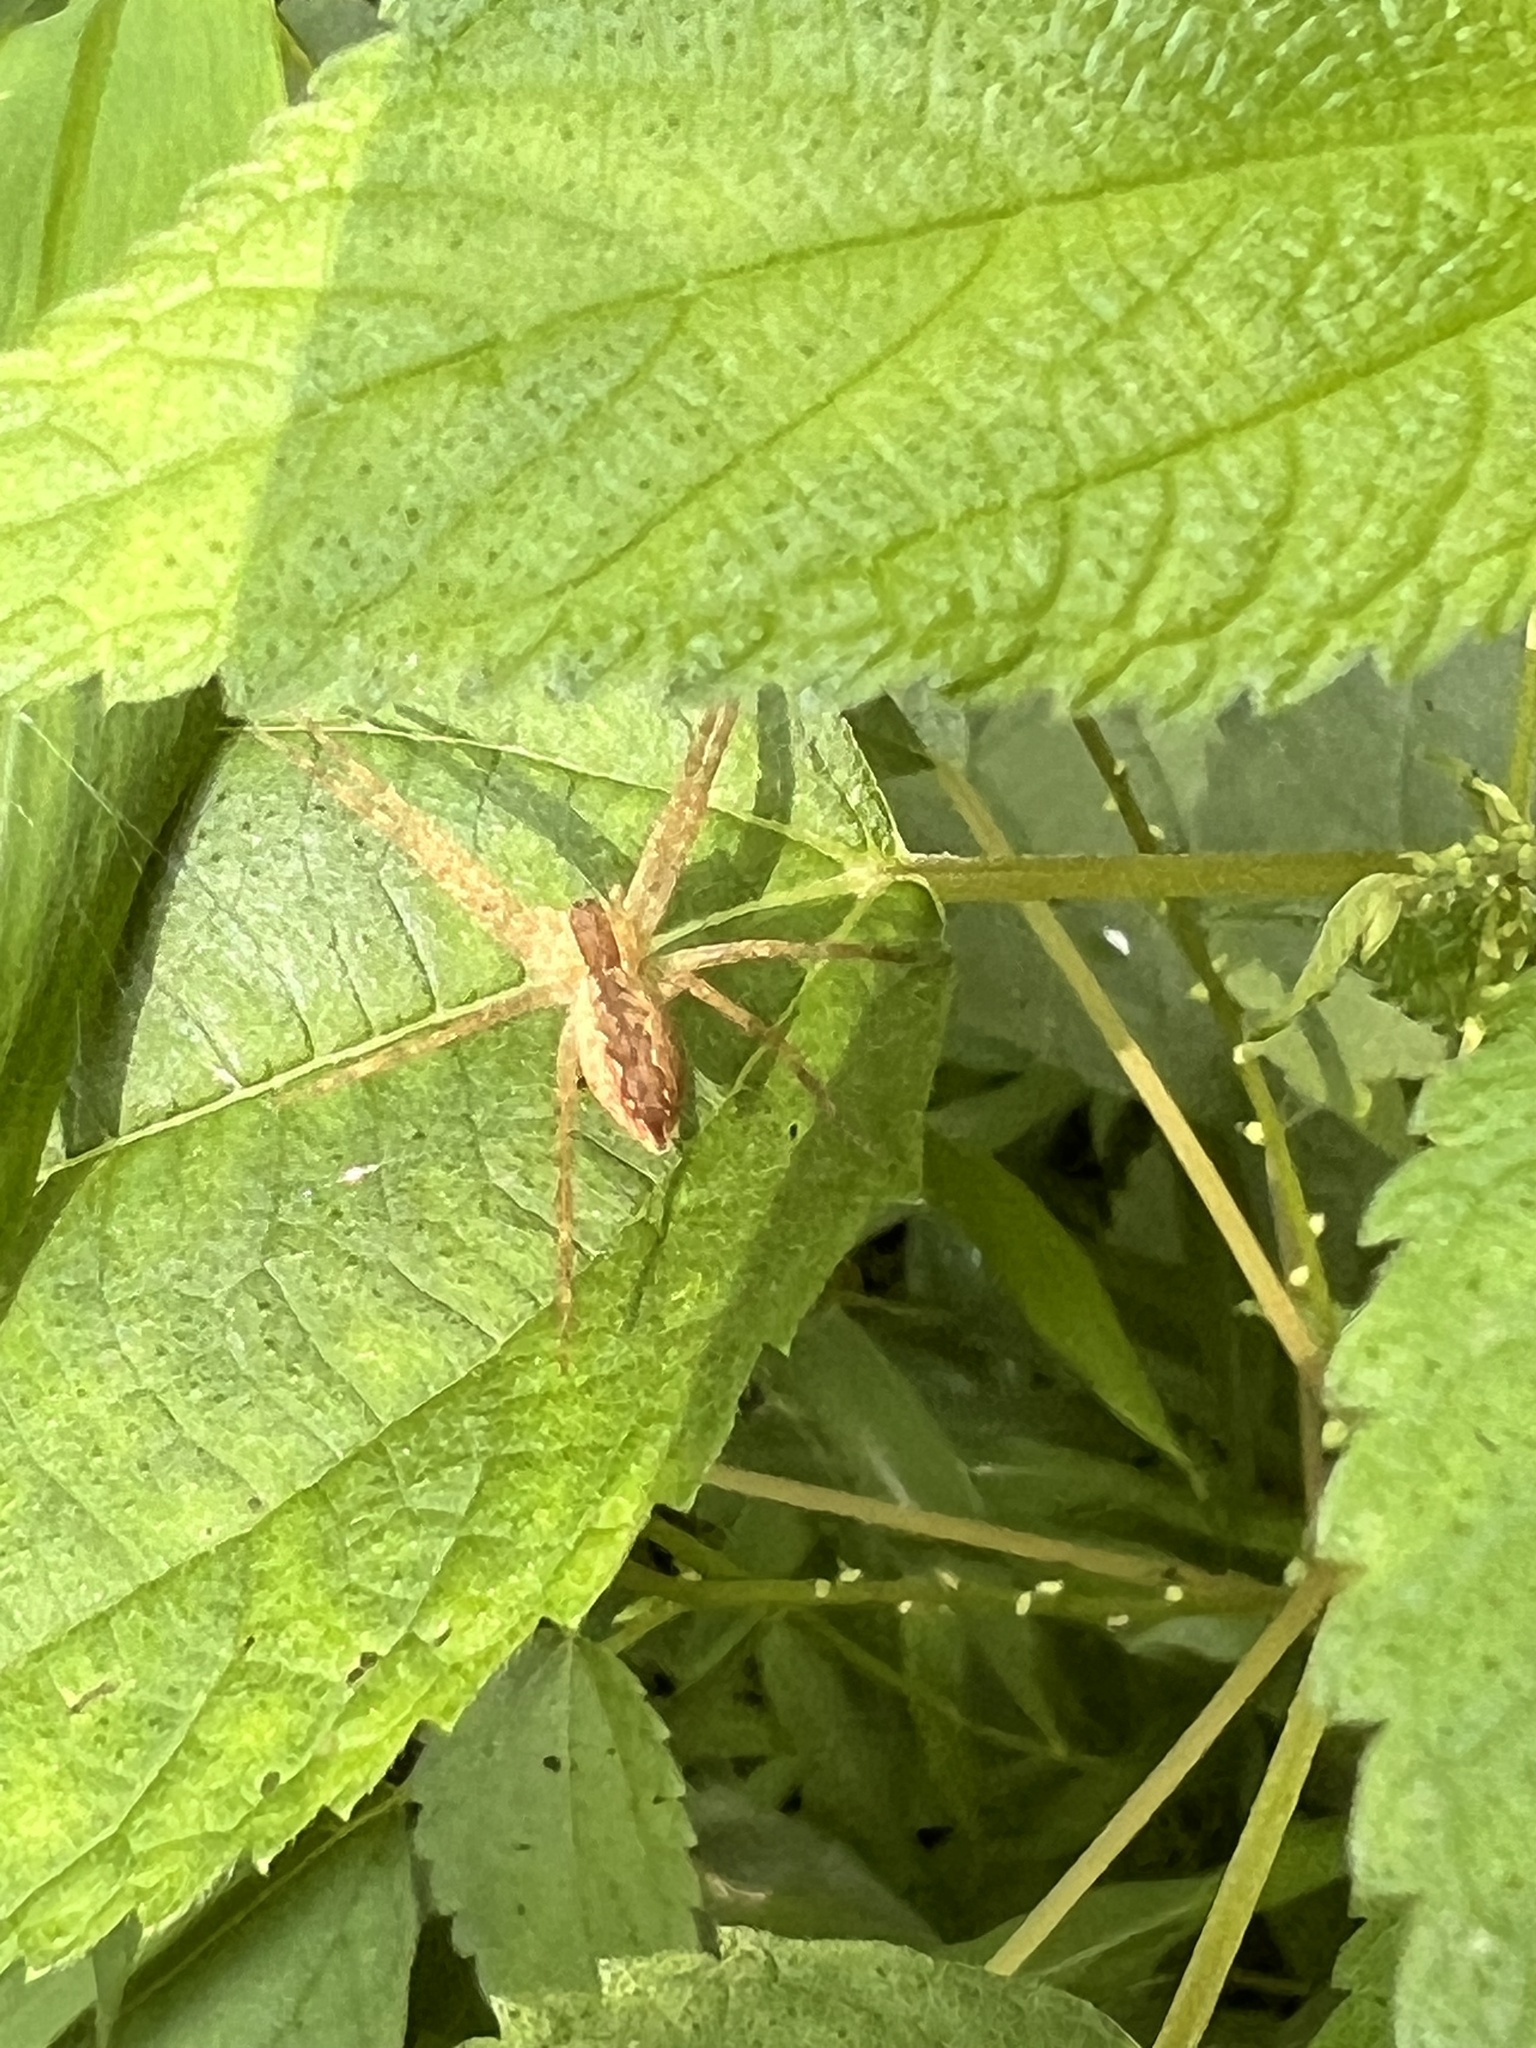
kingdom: Animalia
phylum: Arthropoda
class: Arachnida
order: Araneae
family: Pisauridae
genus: Pisaurina
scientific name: Pisaurina mira
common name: American nursery web spider
